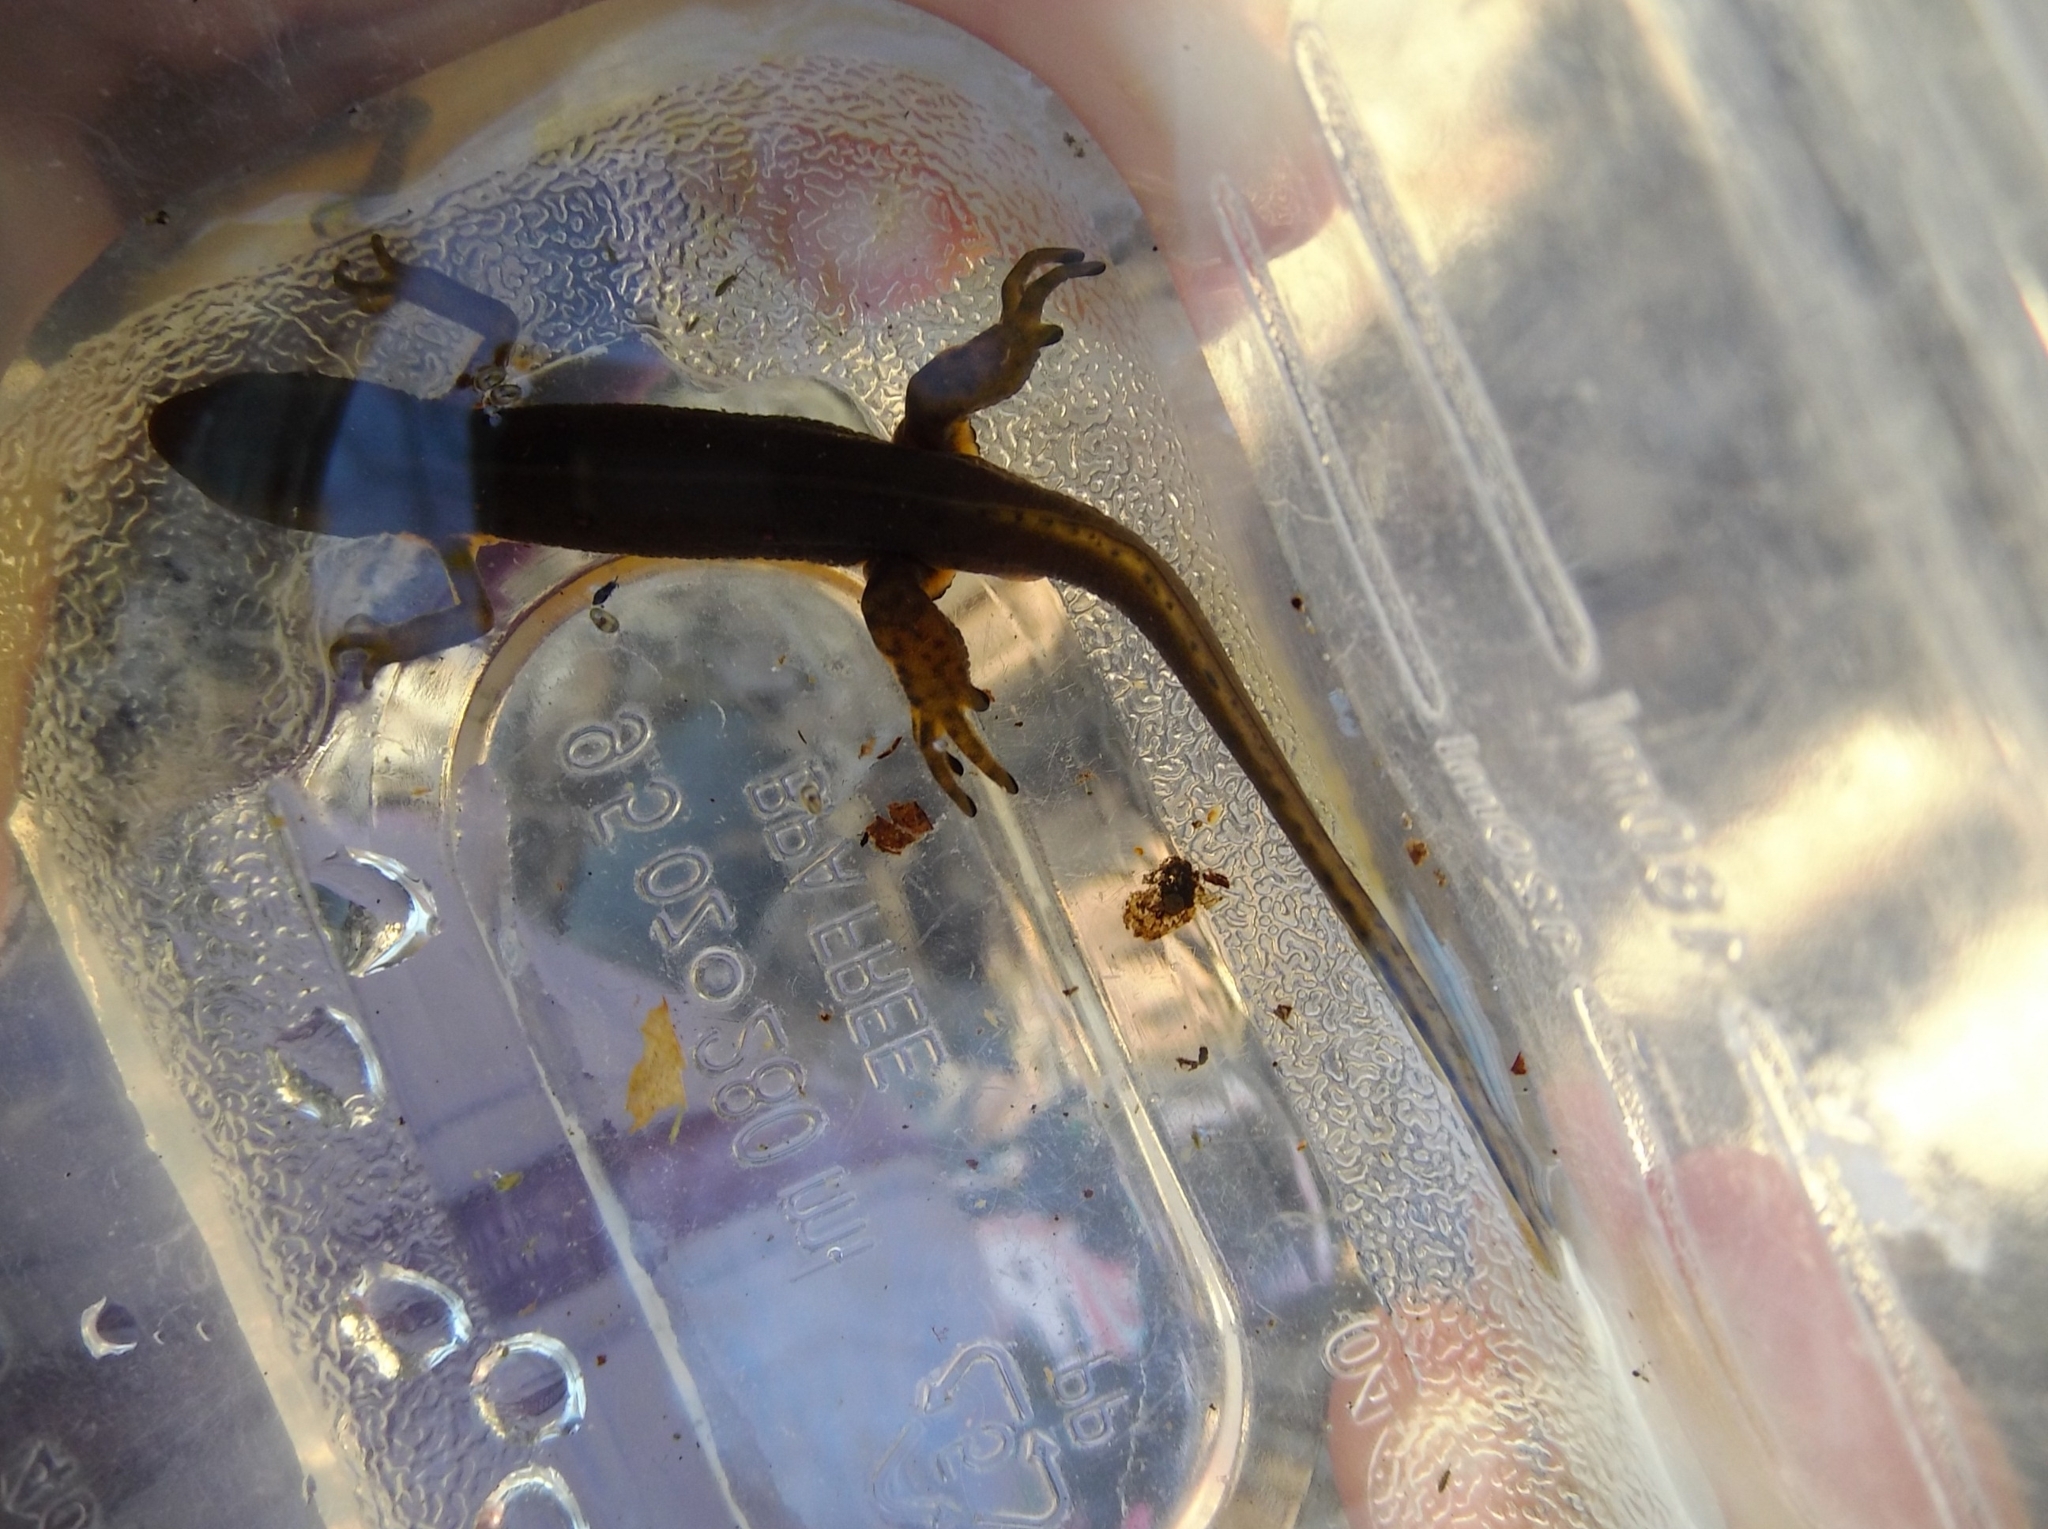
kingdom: Animalia
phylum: Chordata
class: Amphibia
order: Caudata
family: Salamandridae
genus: Notophthalmus
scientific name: Notophthalmus viridescens
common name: Eastern newt
